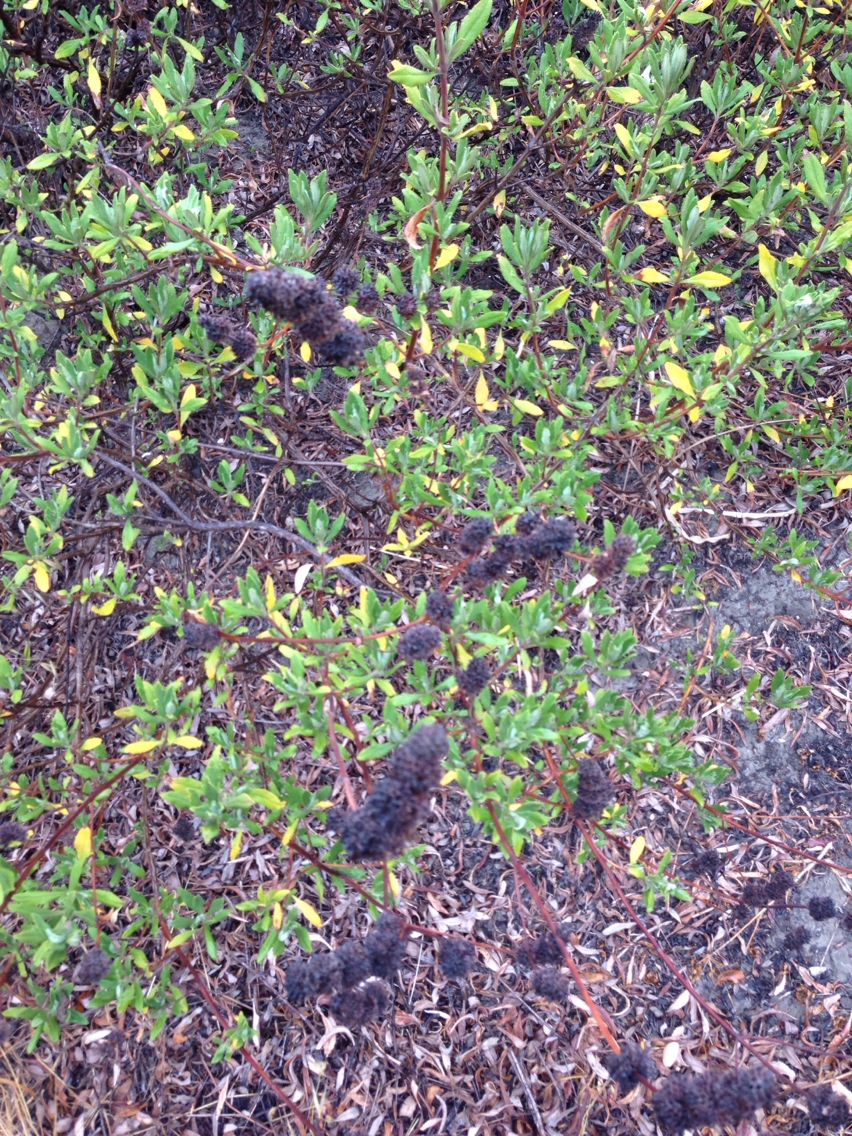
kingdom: Plantae
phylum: Tracheophyta
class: Magnoliopsida
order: Lamiales
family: Lamiaceae
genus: Salvia
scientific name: Salvia mellifera
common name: Black sage
